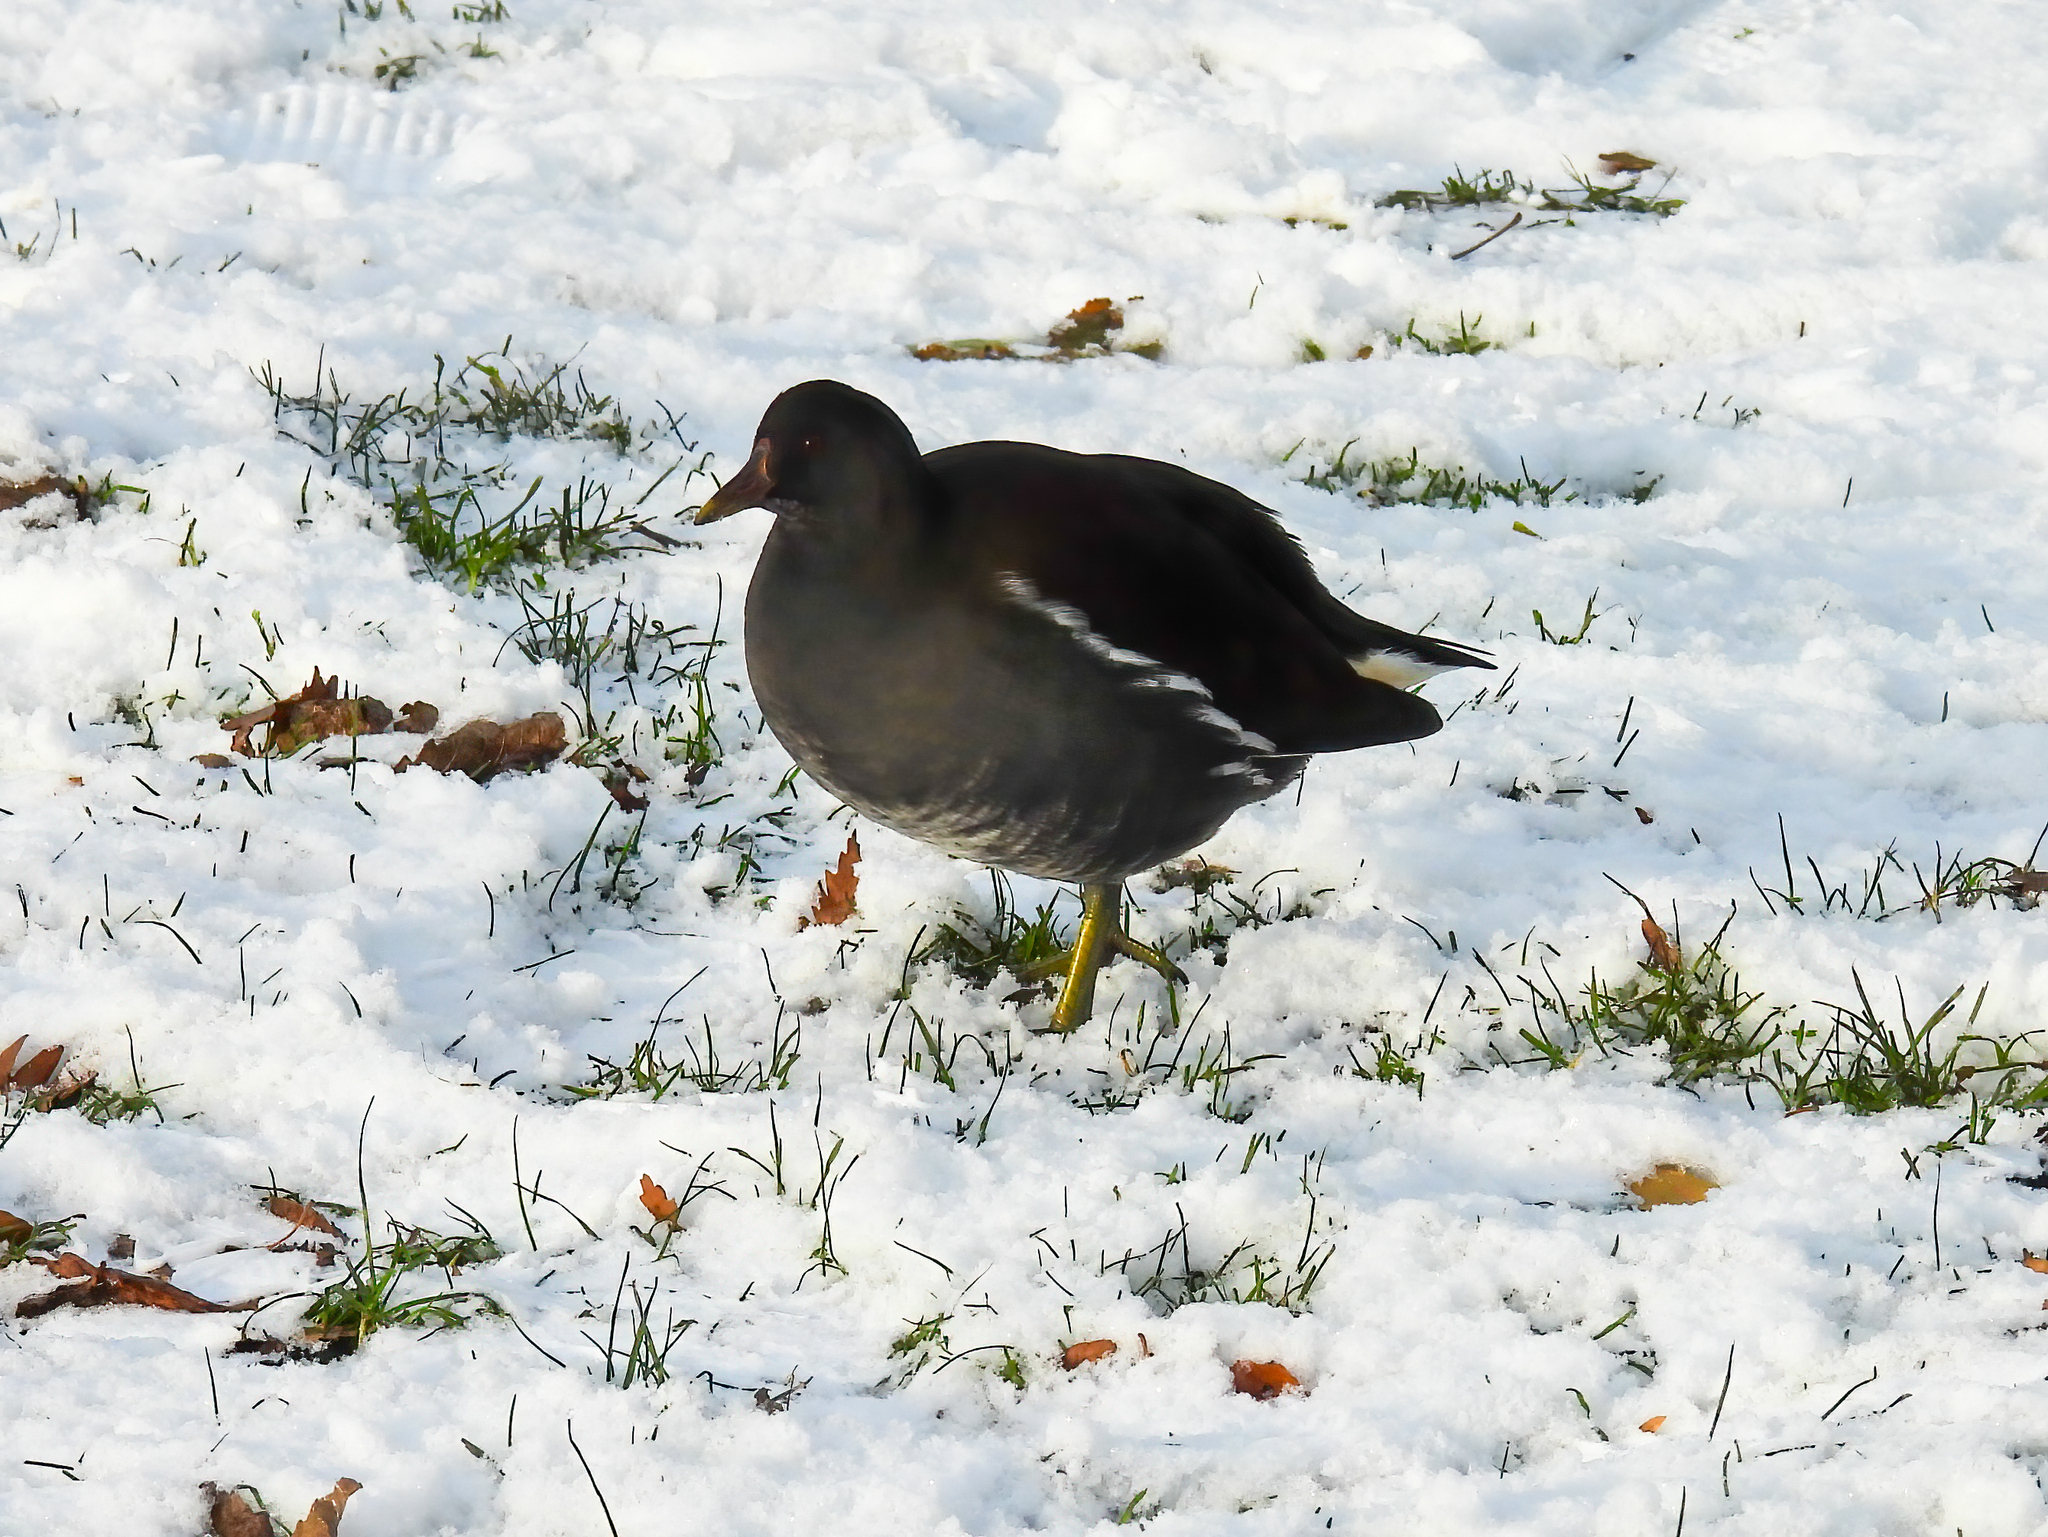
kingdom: Animalia
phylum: Chordata
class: Aves
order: Gruiformes
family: Rallidae
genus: Gallinula
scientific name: Gallinula chloropus
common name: Common moorhen
